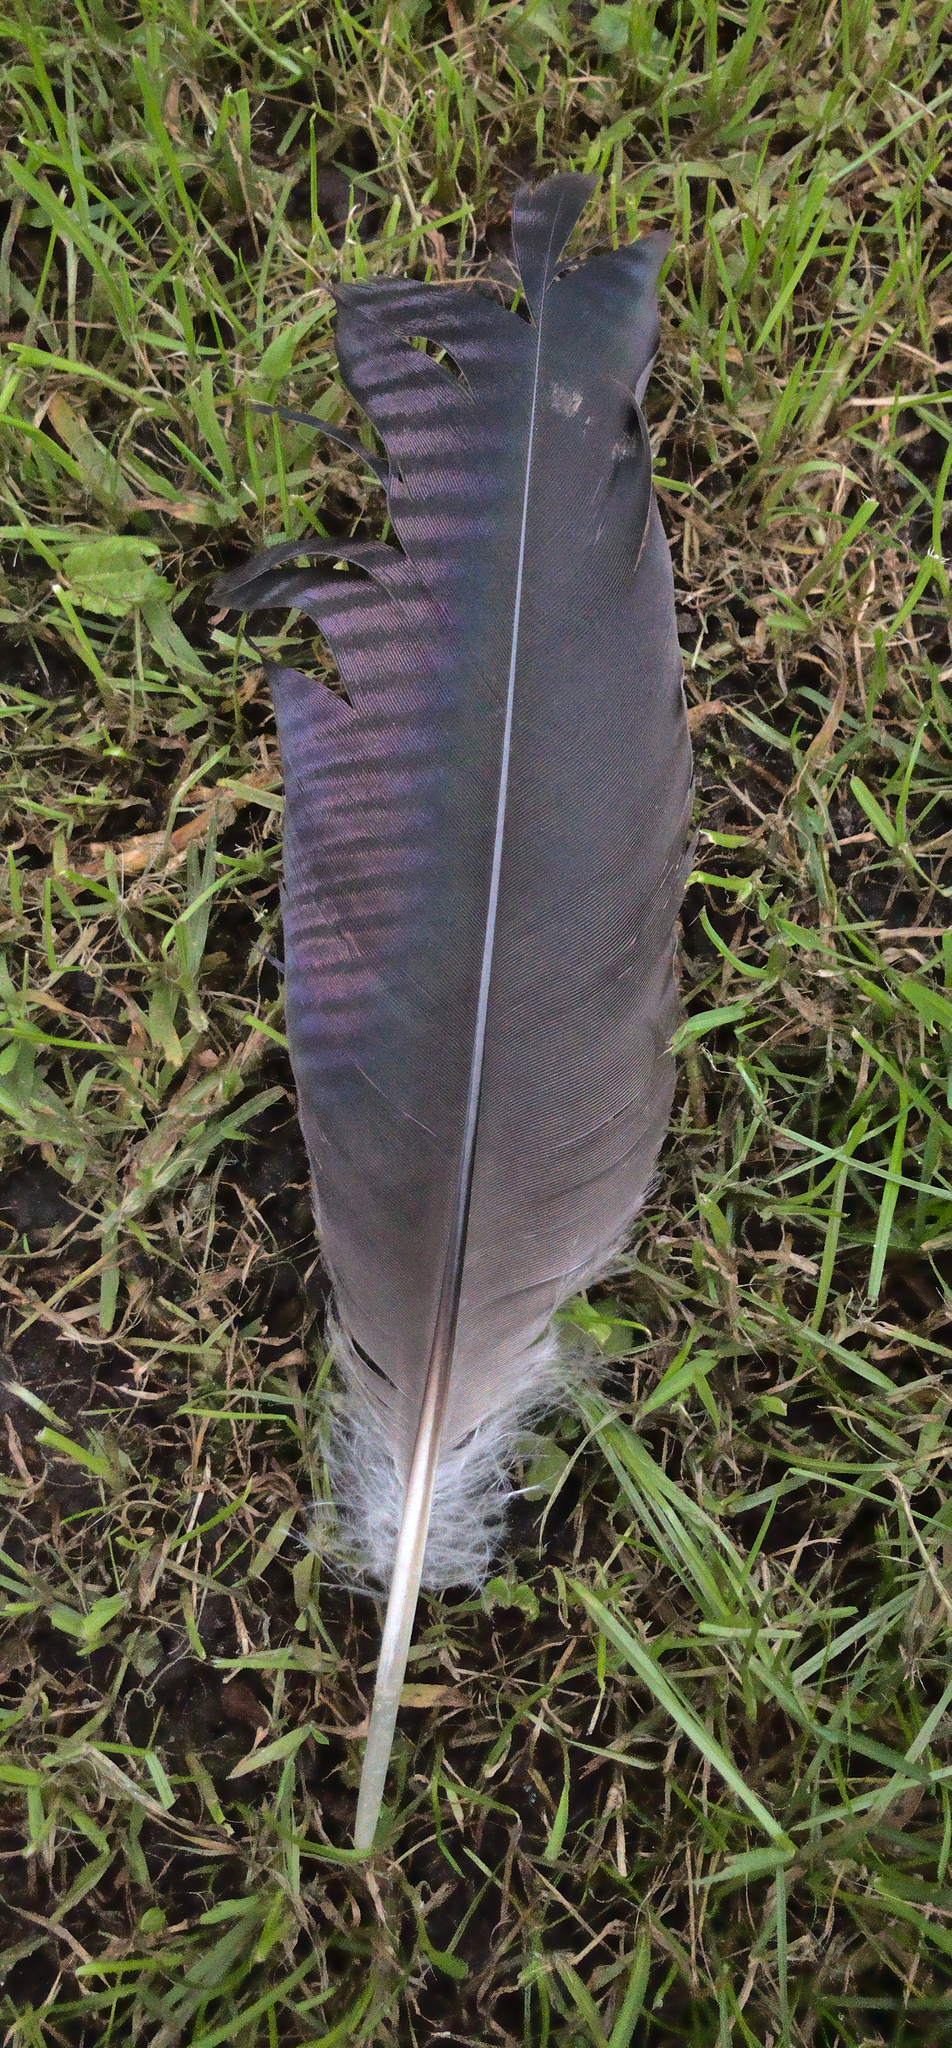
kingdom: Animalia
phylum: Chordata
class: Aves
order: Pelecaniformes
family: Threskiornithidae
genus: Threskiornis
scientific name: Threskiornis spinicollis
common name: Straw-necked ibis
